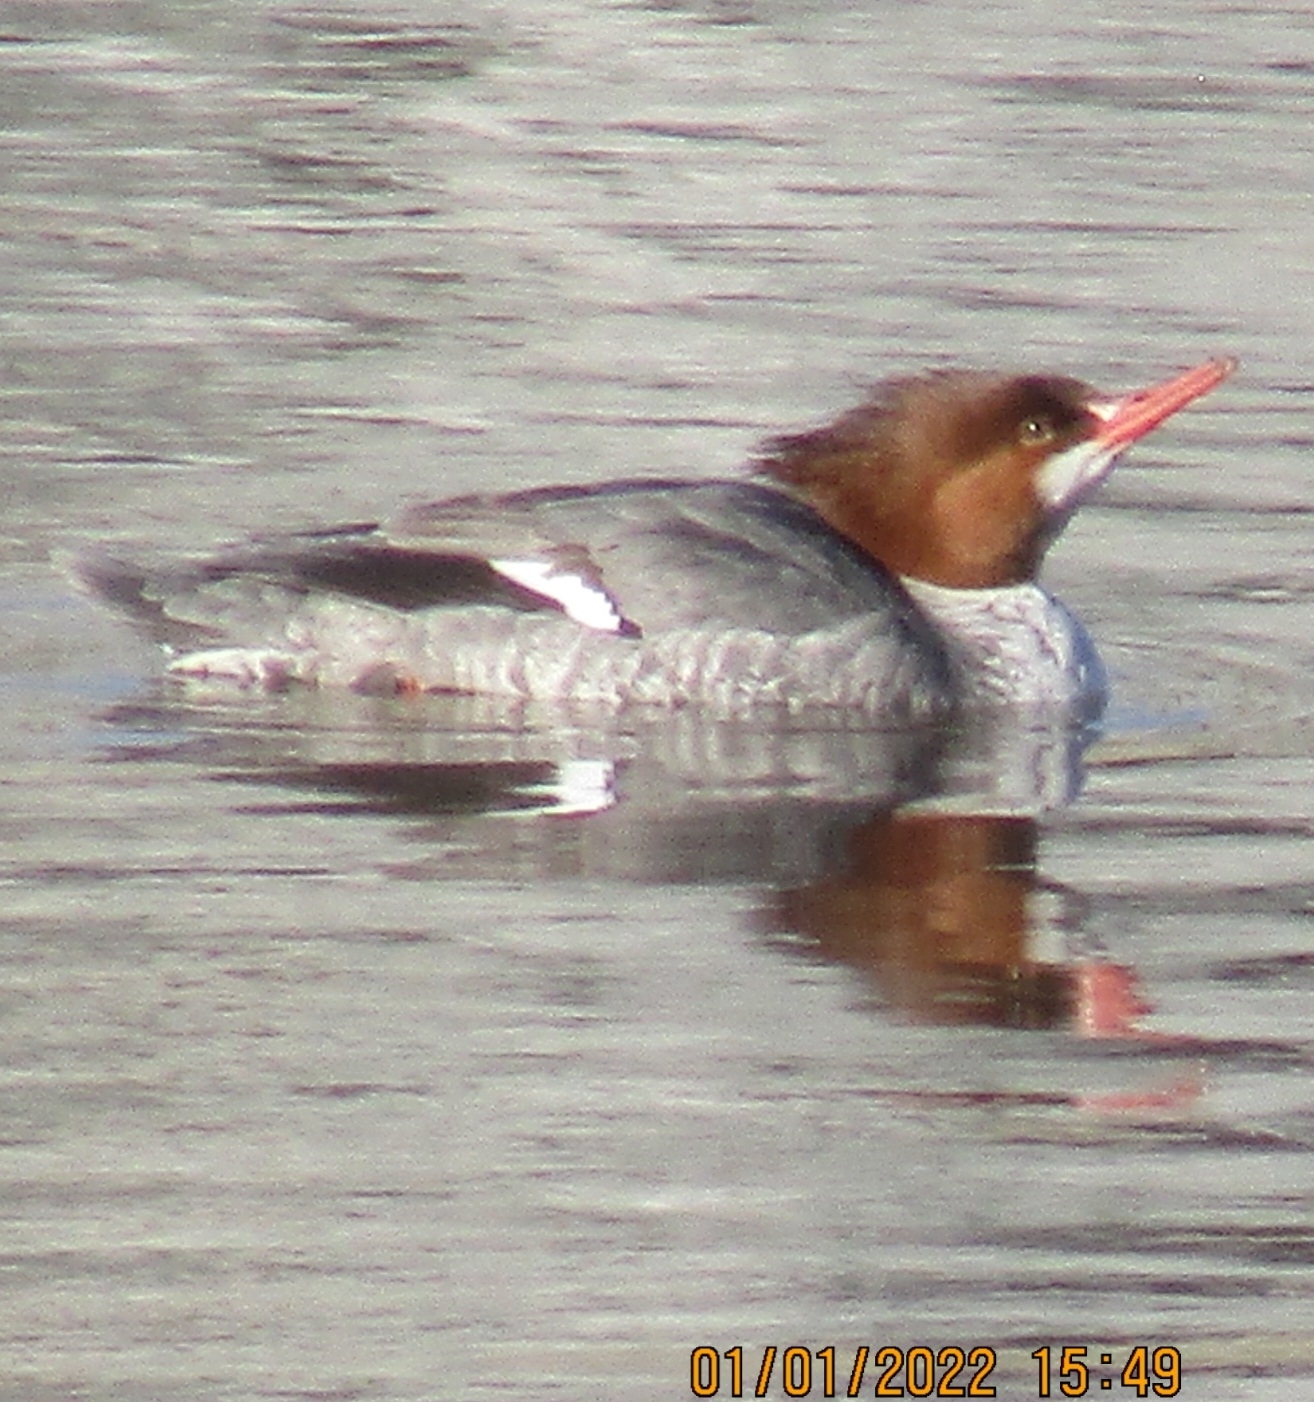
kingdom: Animalia
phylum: Chordata
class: Aves
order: Anseriformes
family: Anatidae
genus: Mergus
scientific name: Mergus merganser
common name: Common merganser
